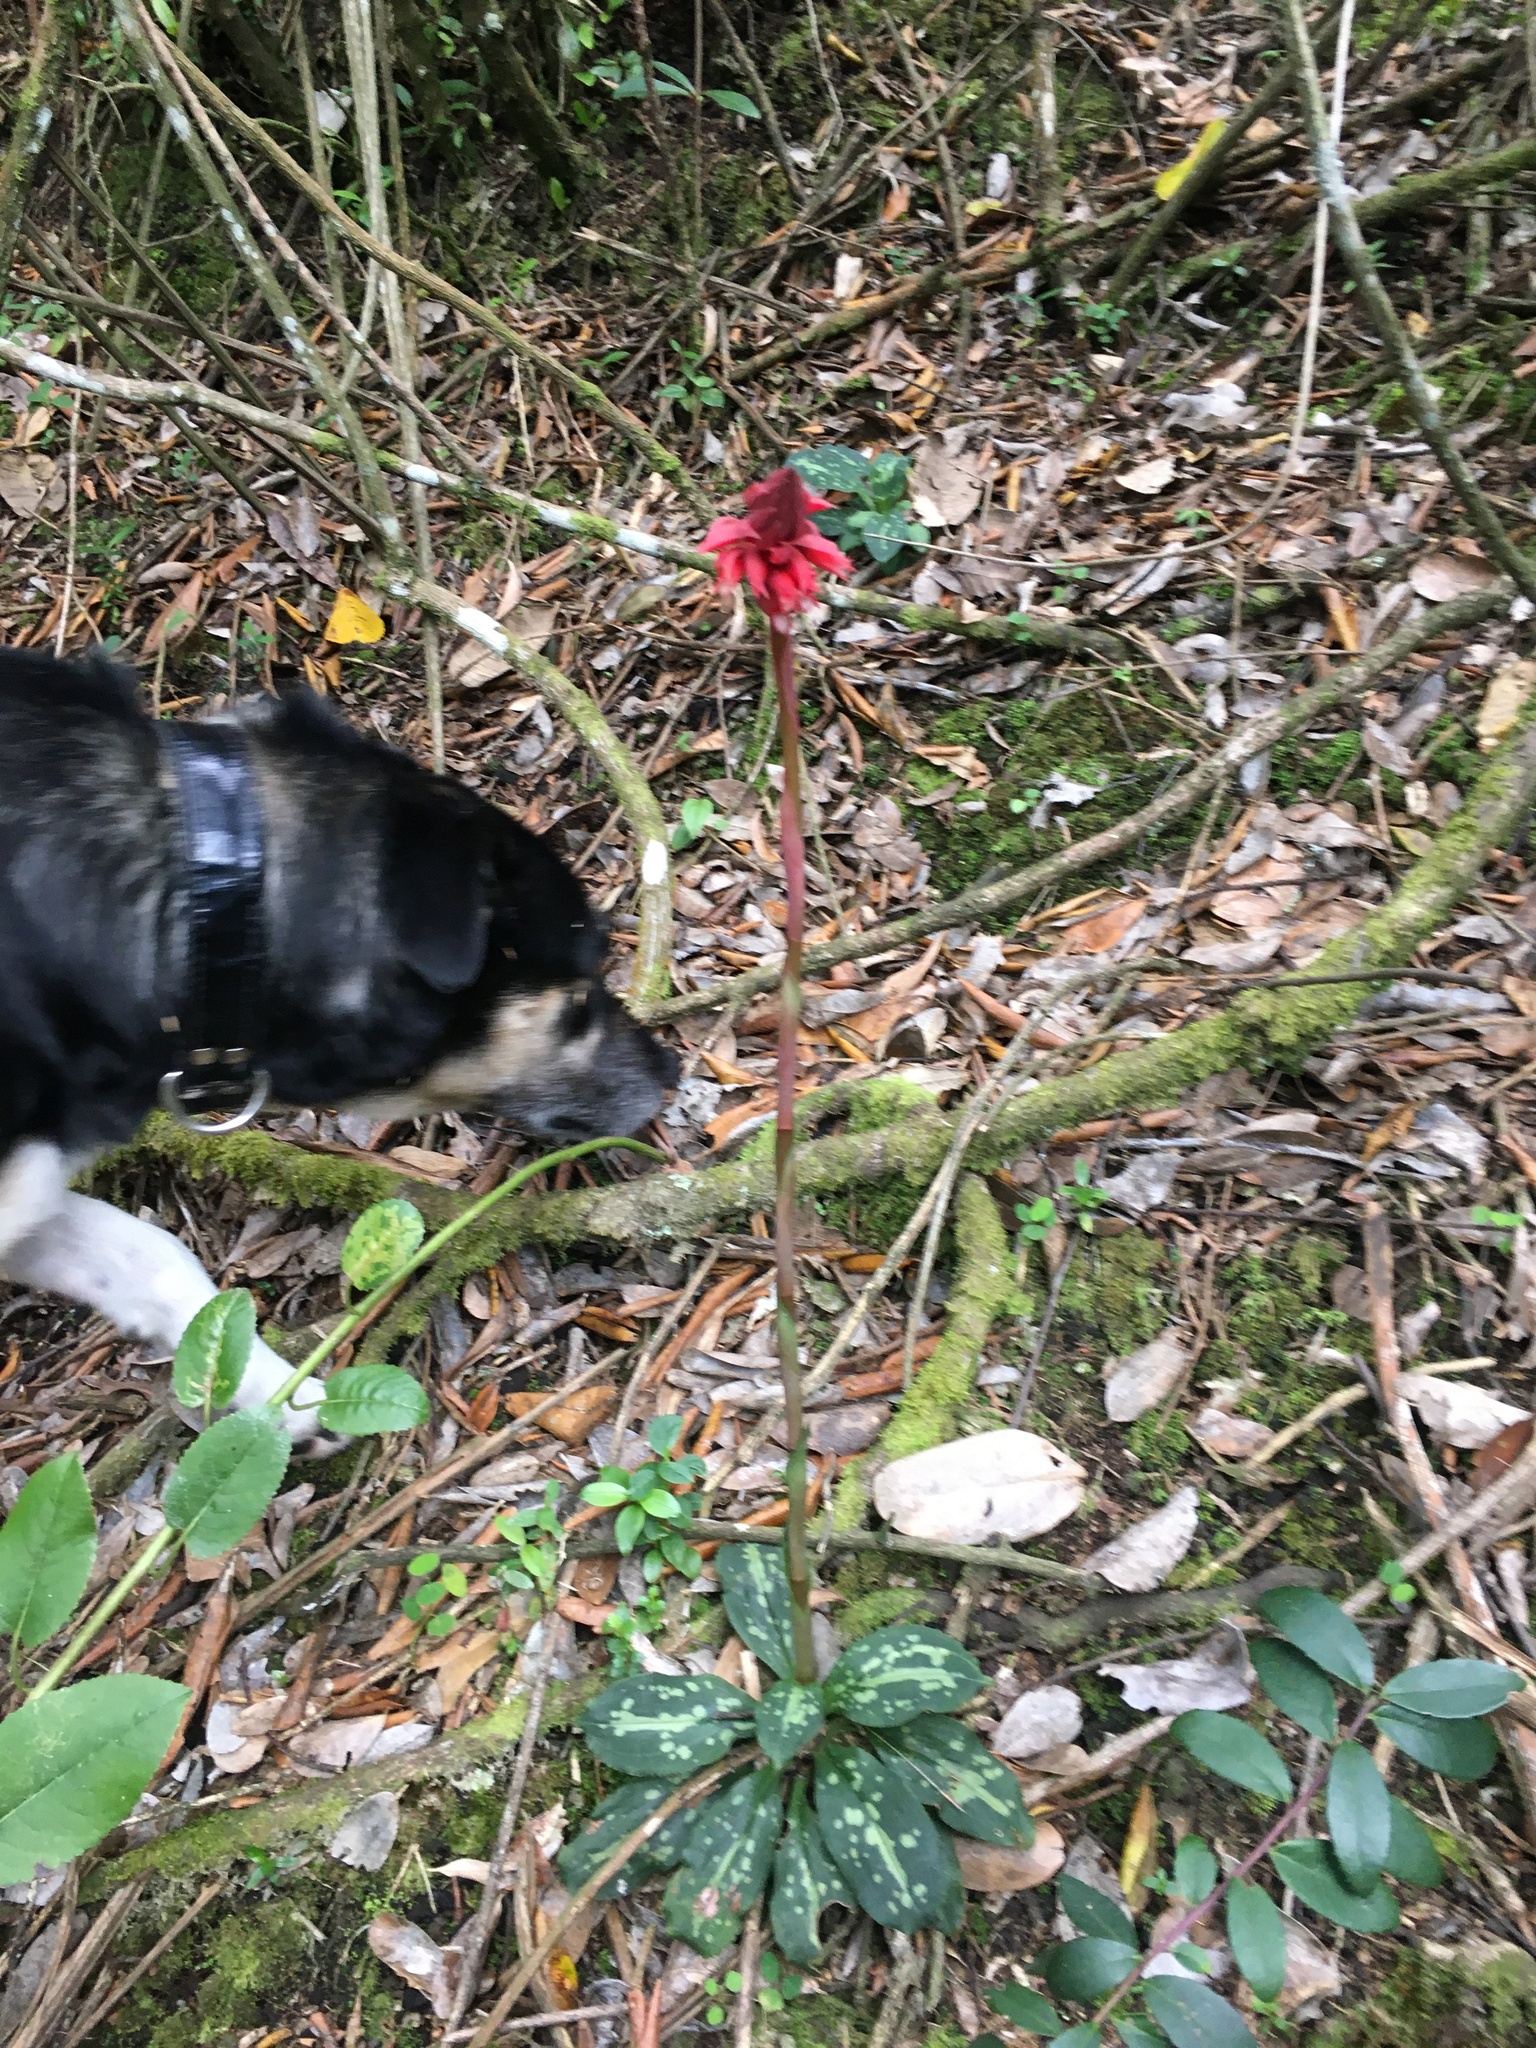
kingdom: Plantae
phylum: Tracheophyta
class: Liliopsida
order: Asparagales
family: Orchidaceae
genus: Stenorrhynchos
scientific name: Stenorrhynchos albidomaculatum
